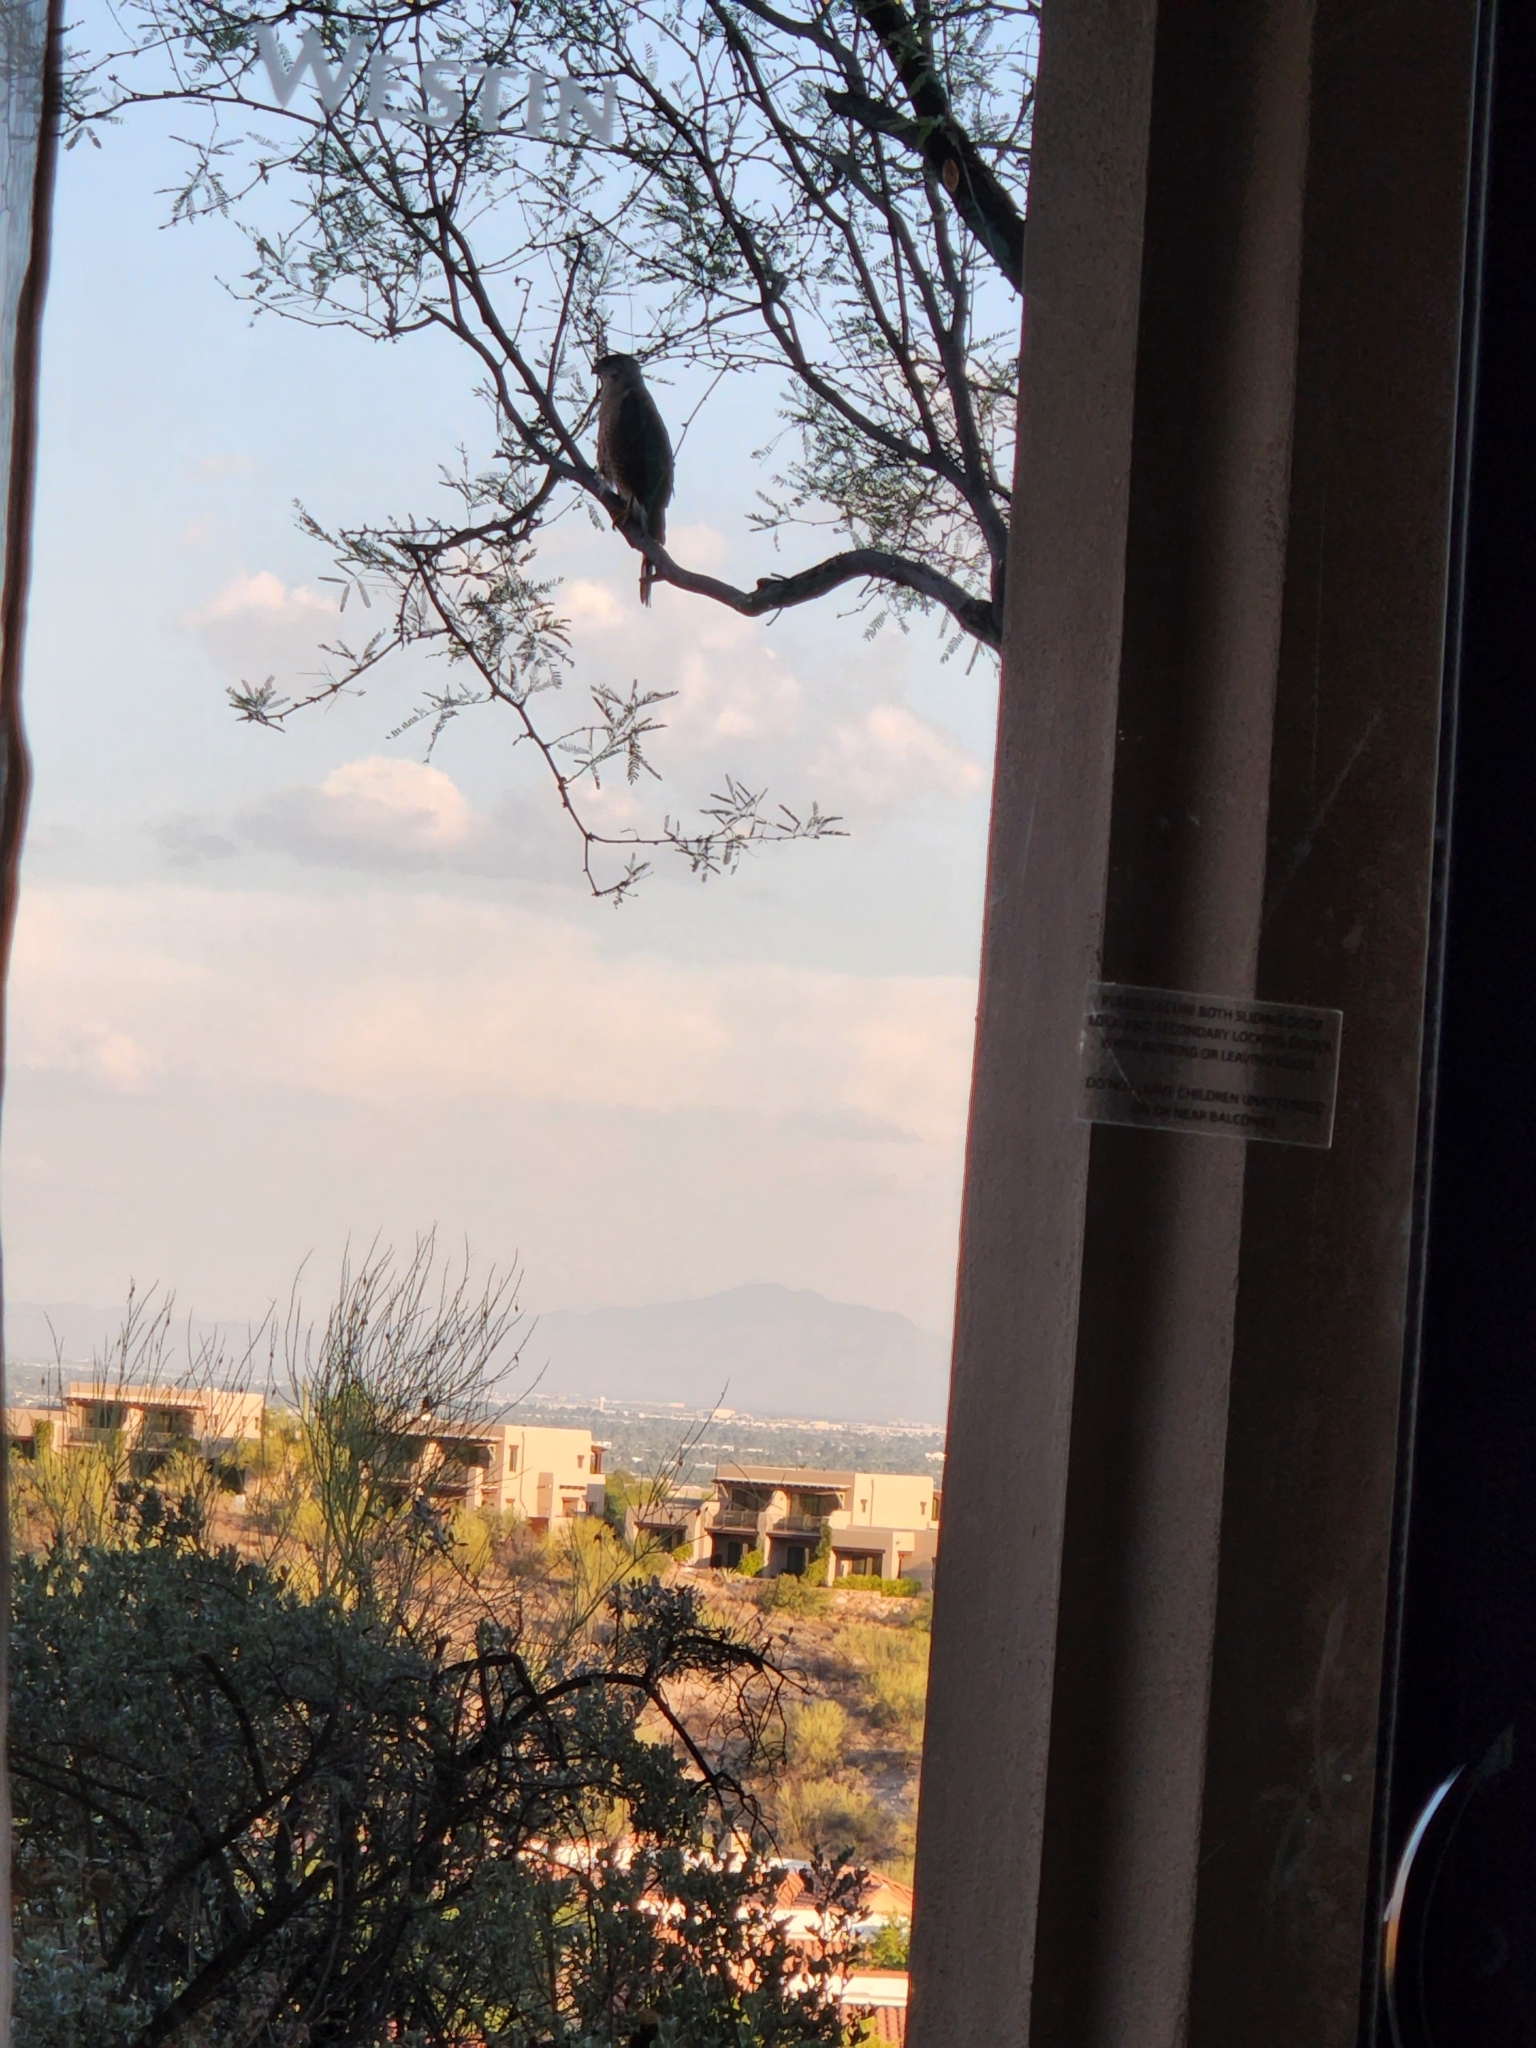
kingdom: Animalia
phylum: Chordata
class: Aves
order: Accipitriformes
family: Accipitridae
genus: Accipiter
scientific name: Accipiter cooperii
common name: Cooper's hawk
